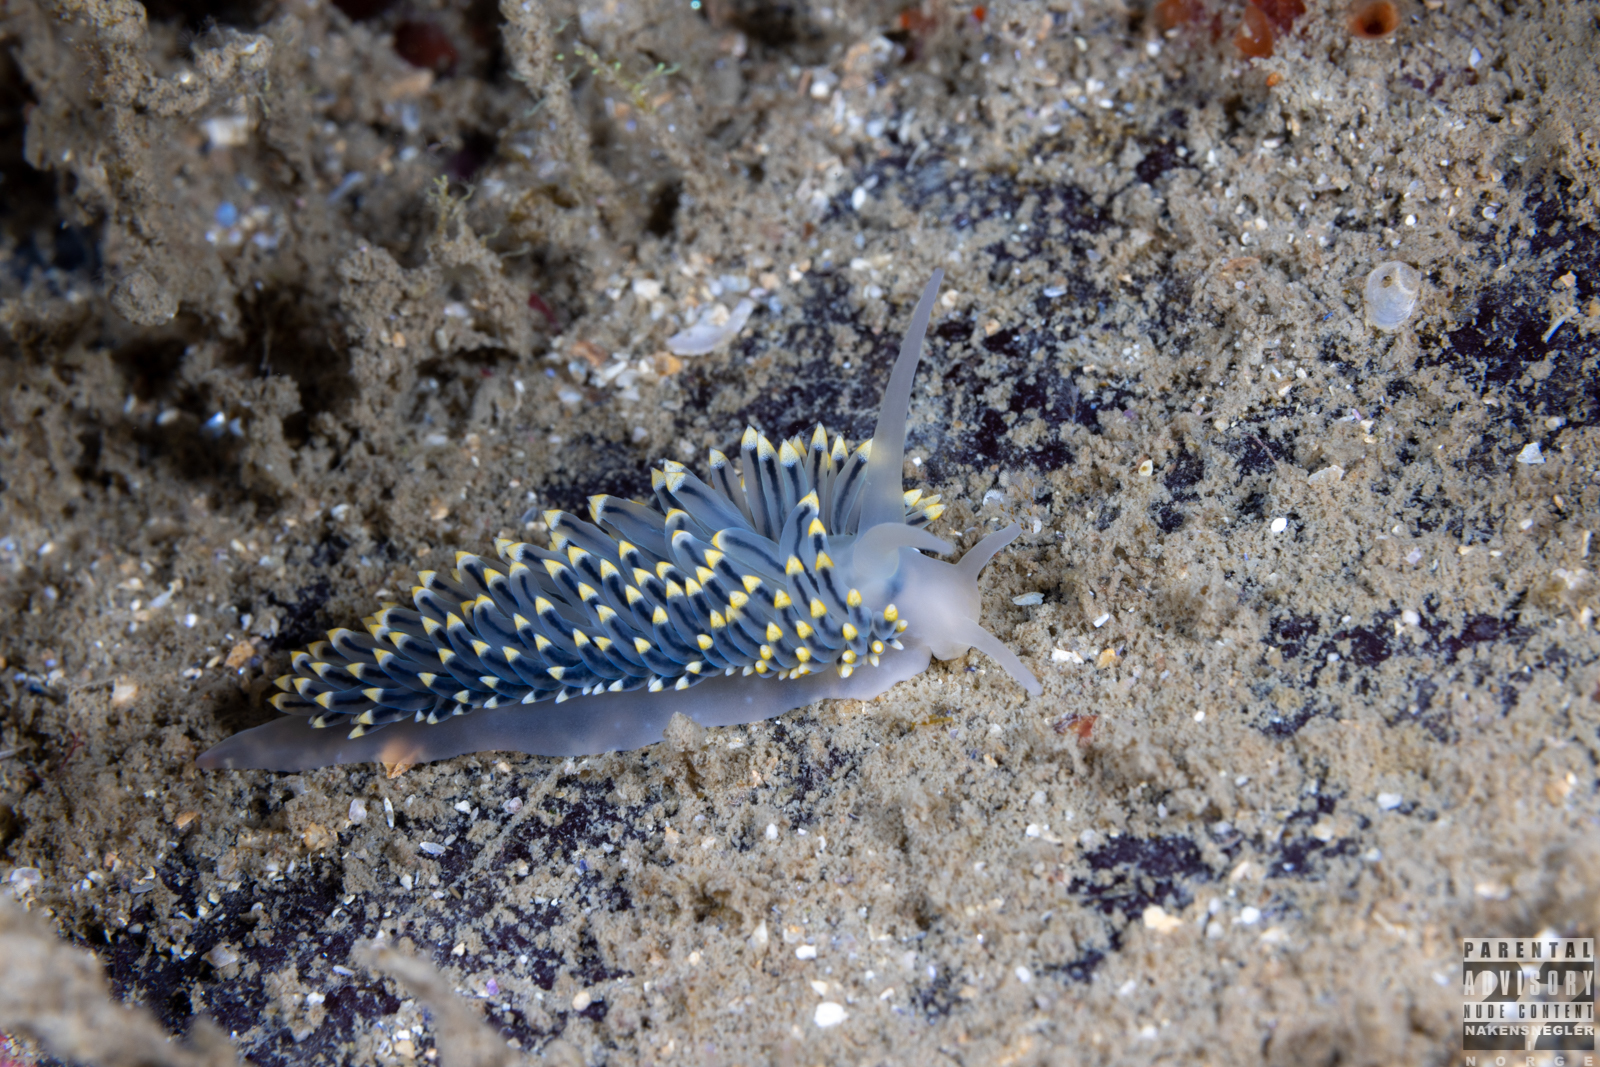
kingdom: Animalia
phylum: Mollusca
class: Gastropoda
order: Nudibranchia
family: Eubranchidae
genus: Eubranchus
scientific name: Eubranchus tricolor
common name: Painted balloon aeolis
